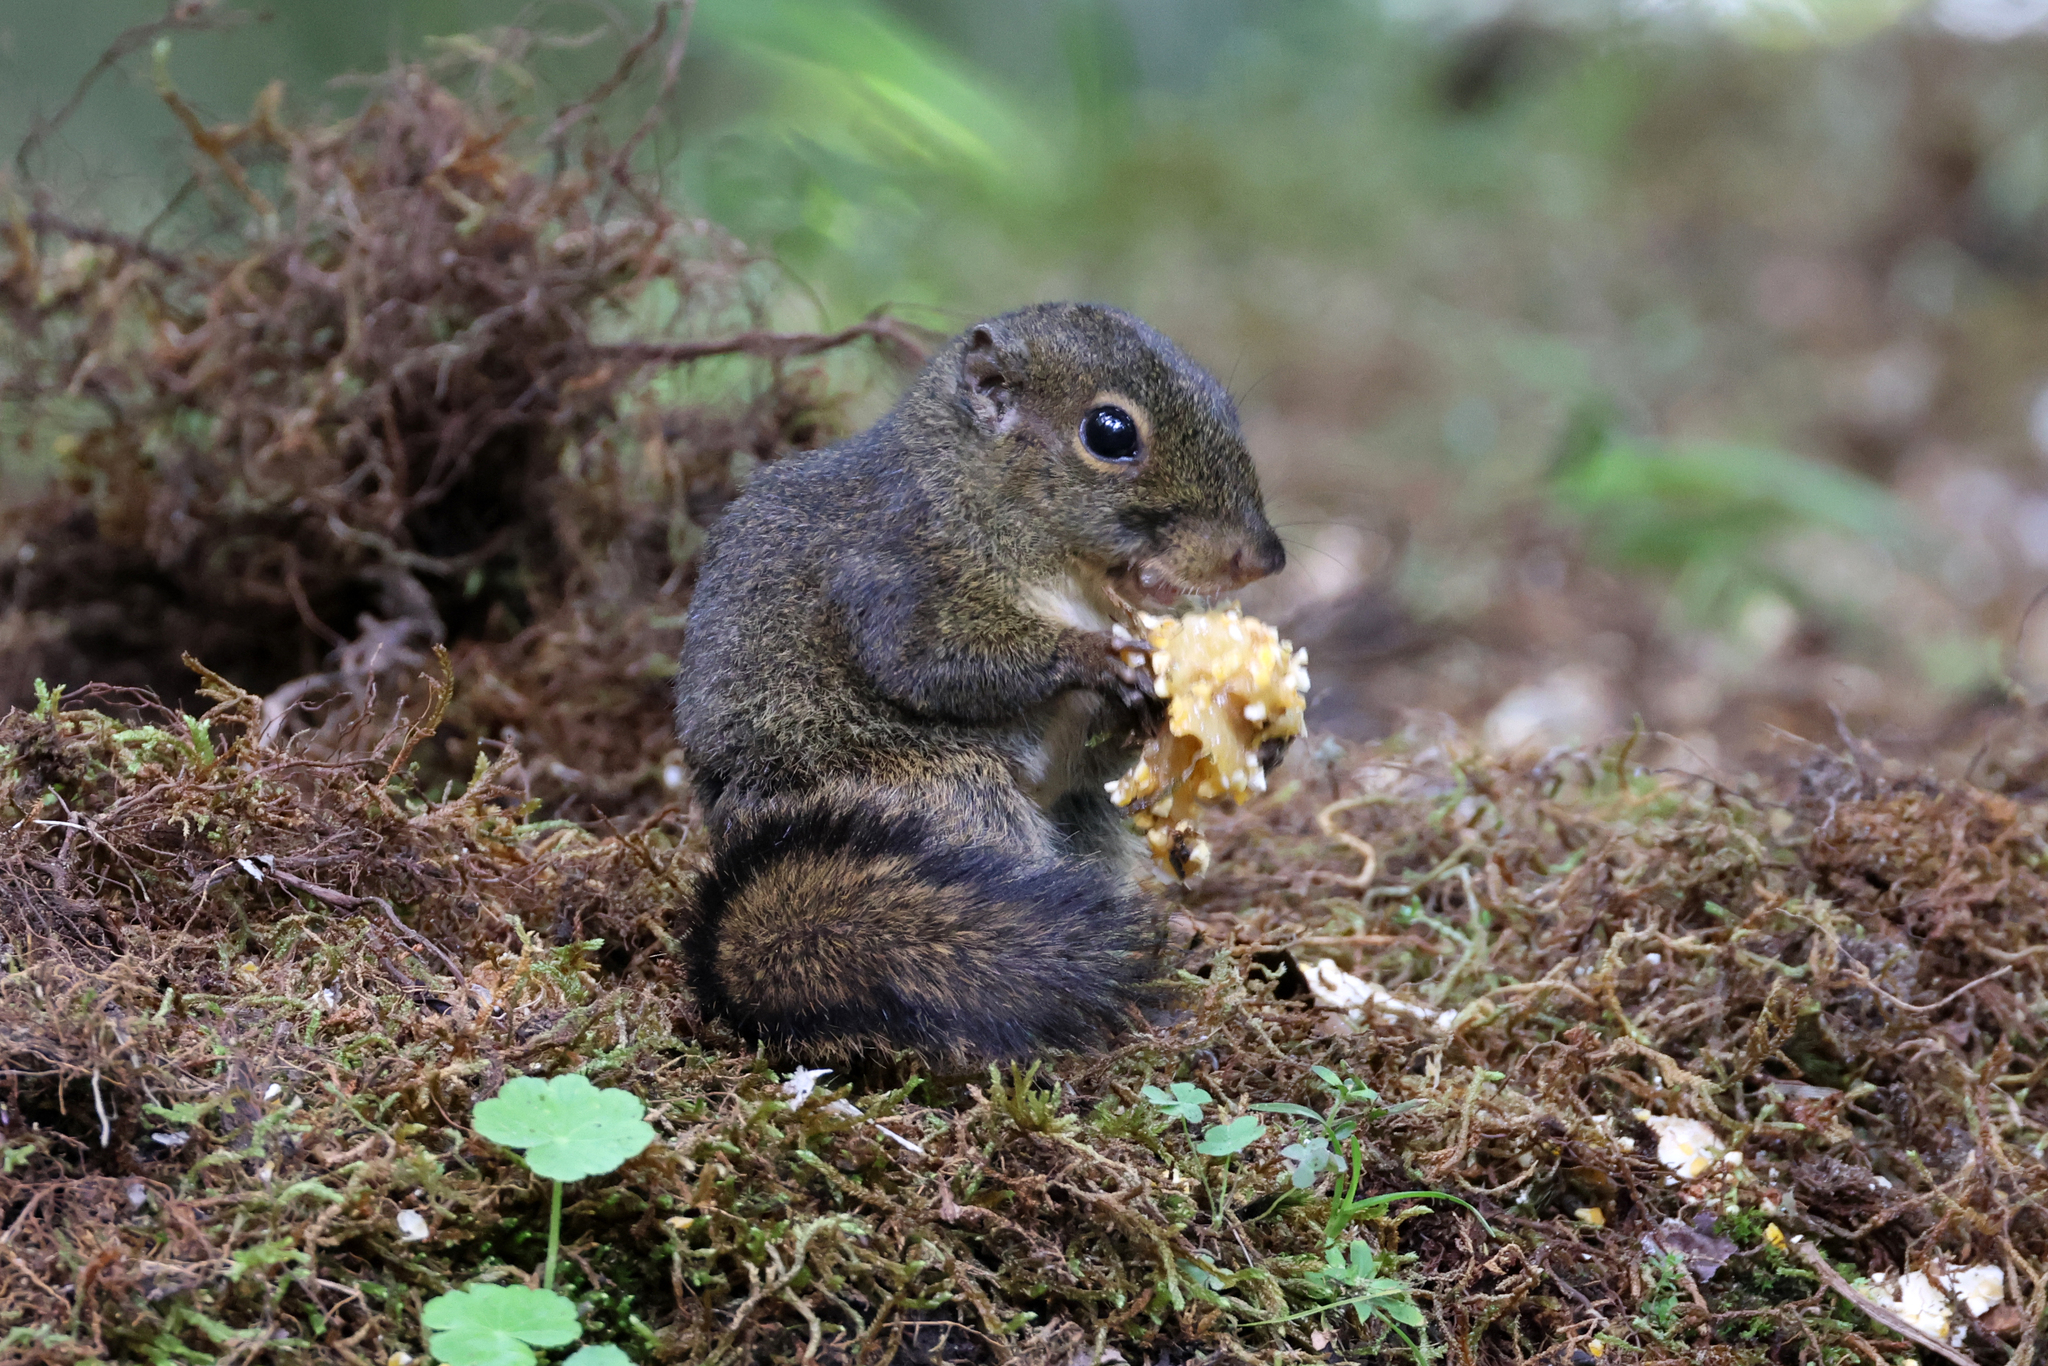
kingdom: Animalia
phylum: Chordata
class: Mammalia
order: Rodentia
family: Sciuridae
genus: Sundasciurus
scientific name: Sundasciurus everetti
